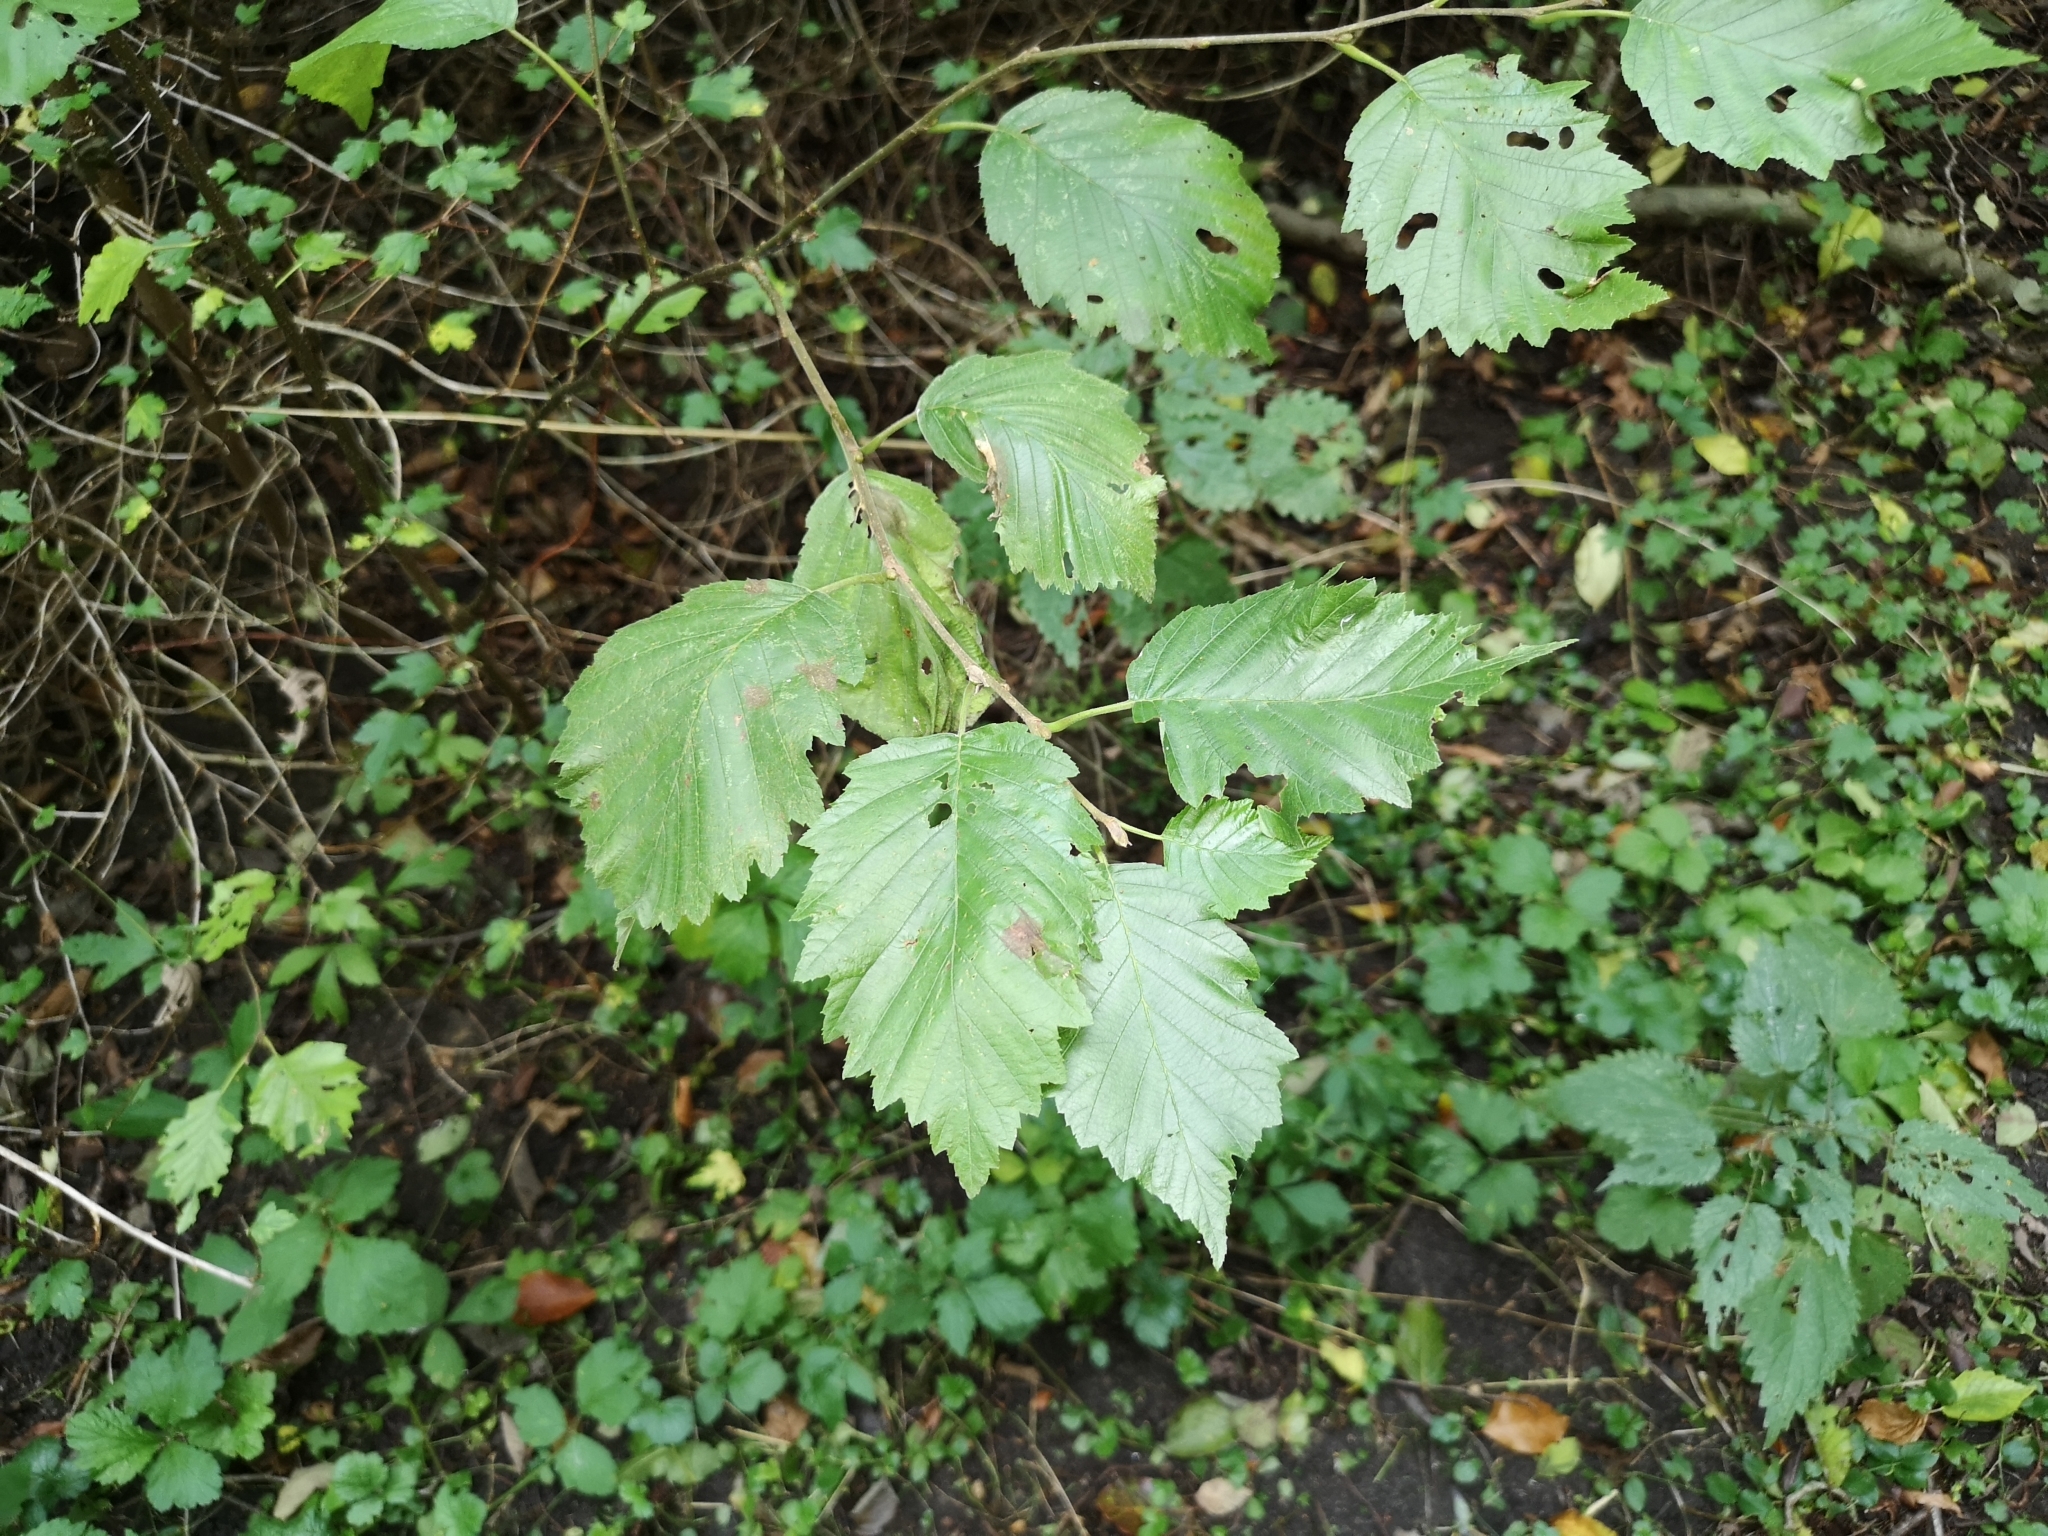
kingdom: Plantae
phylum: Tracheophyta
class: Magnoliopsida
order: Fagales
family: Betulaceae
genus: Alnus
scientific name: Alnus incana
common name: Grey alder
